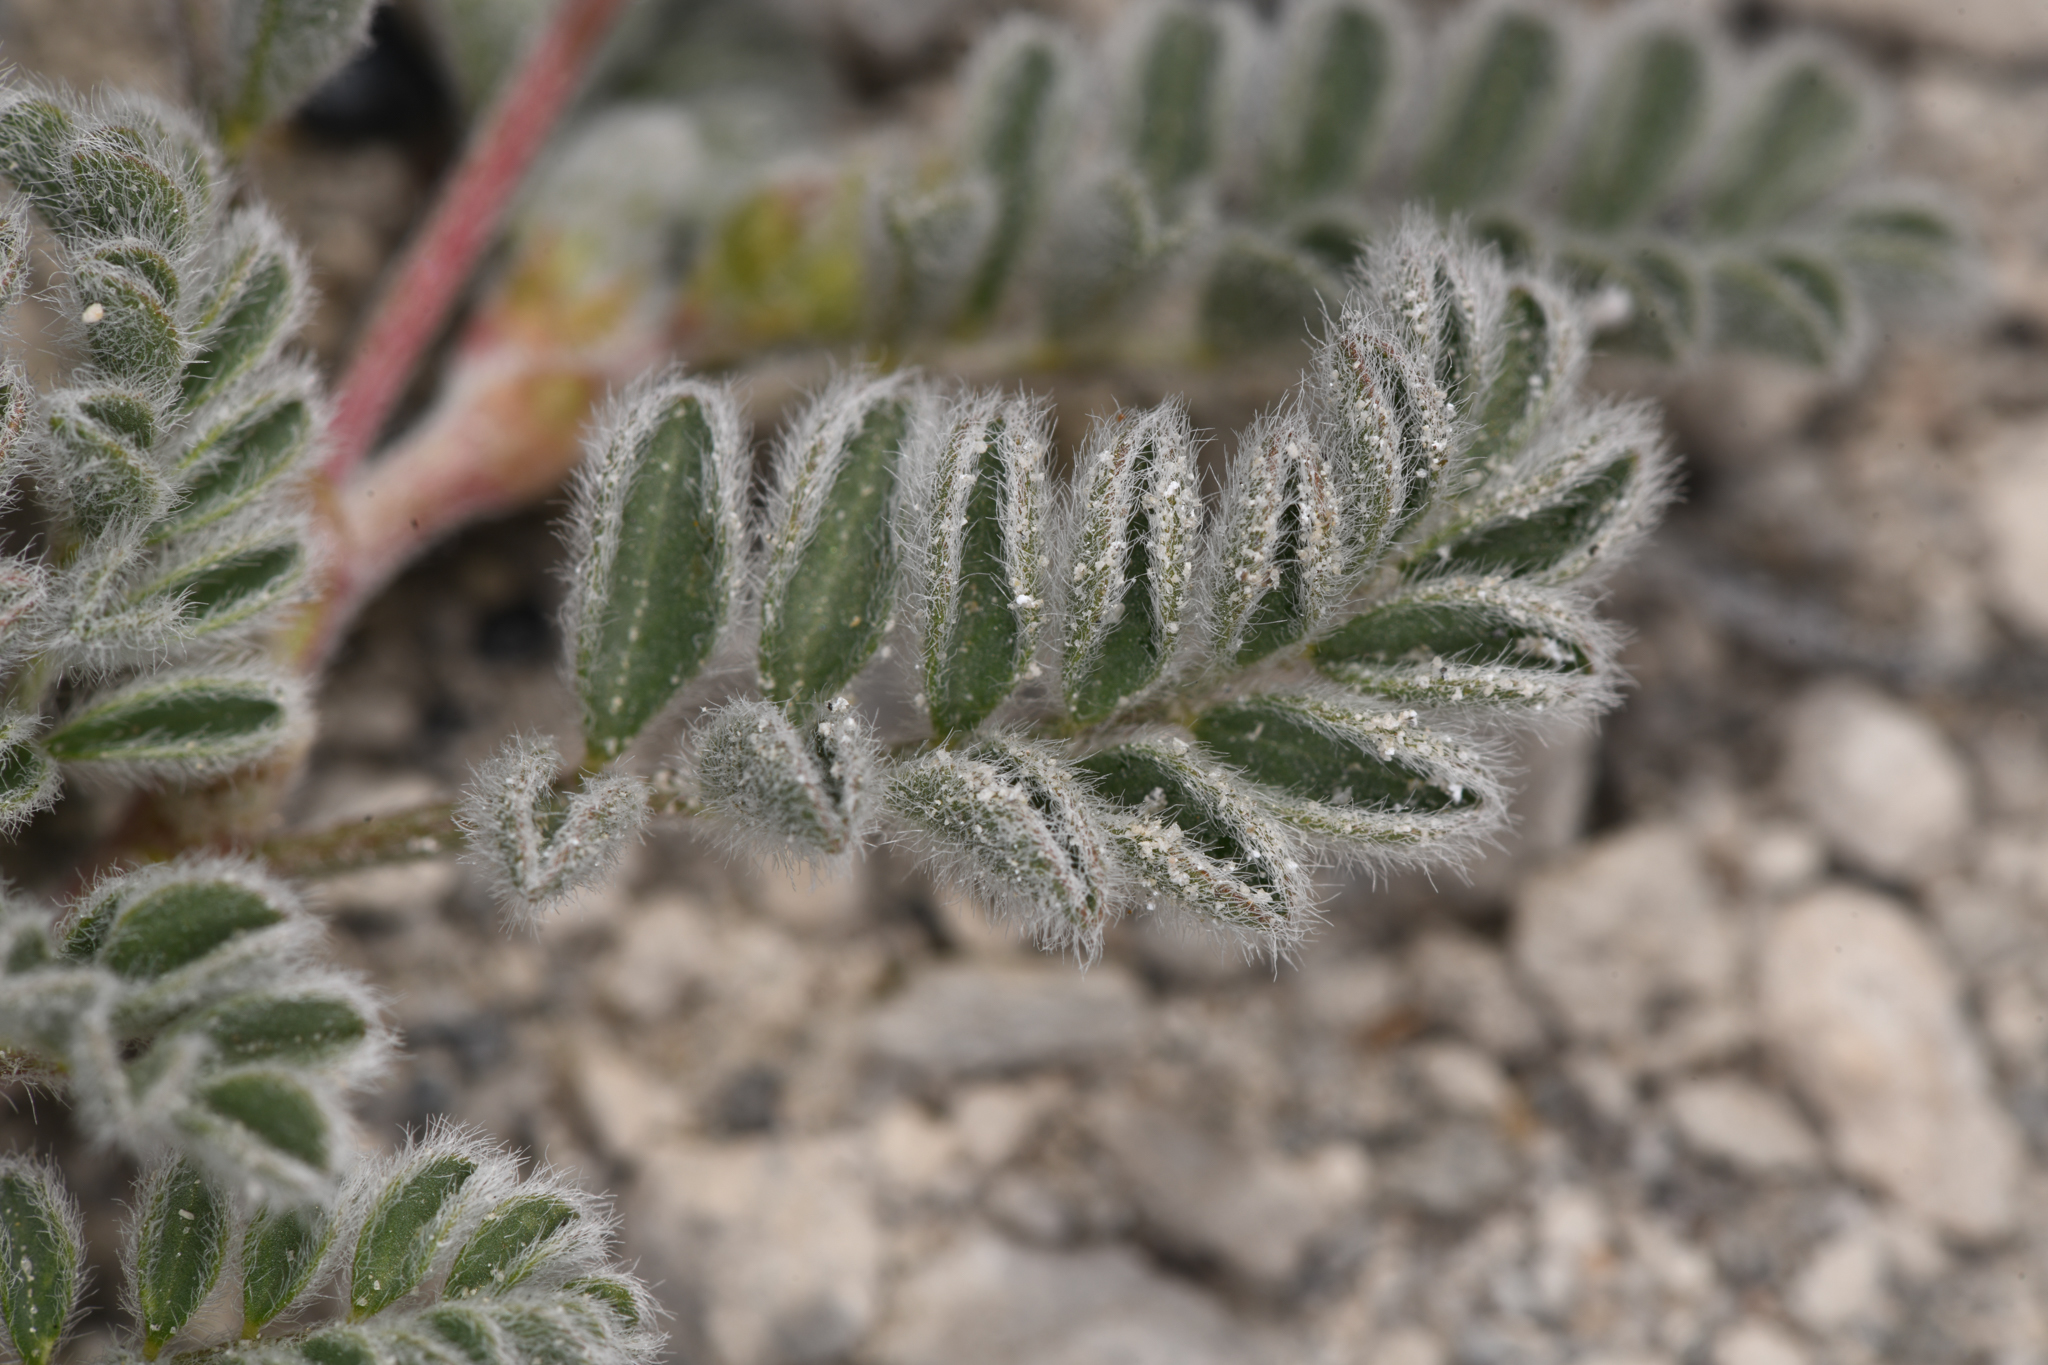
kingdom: Plantae
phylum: Tracheophyta
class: Magnoliopsida
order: Fabales
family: Fabaceae
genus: Astragalus
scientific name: Astragalus lentiginosus
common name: Freckled milkvetch
